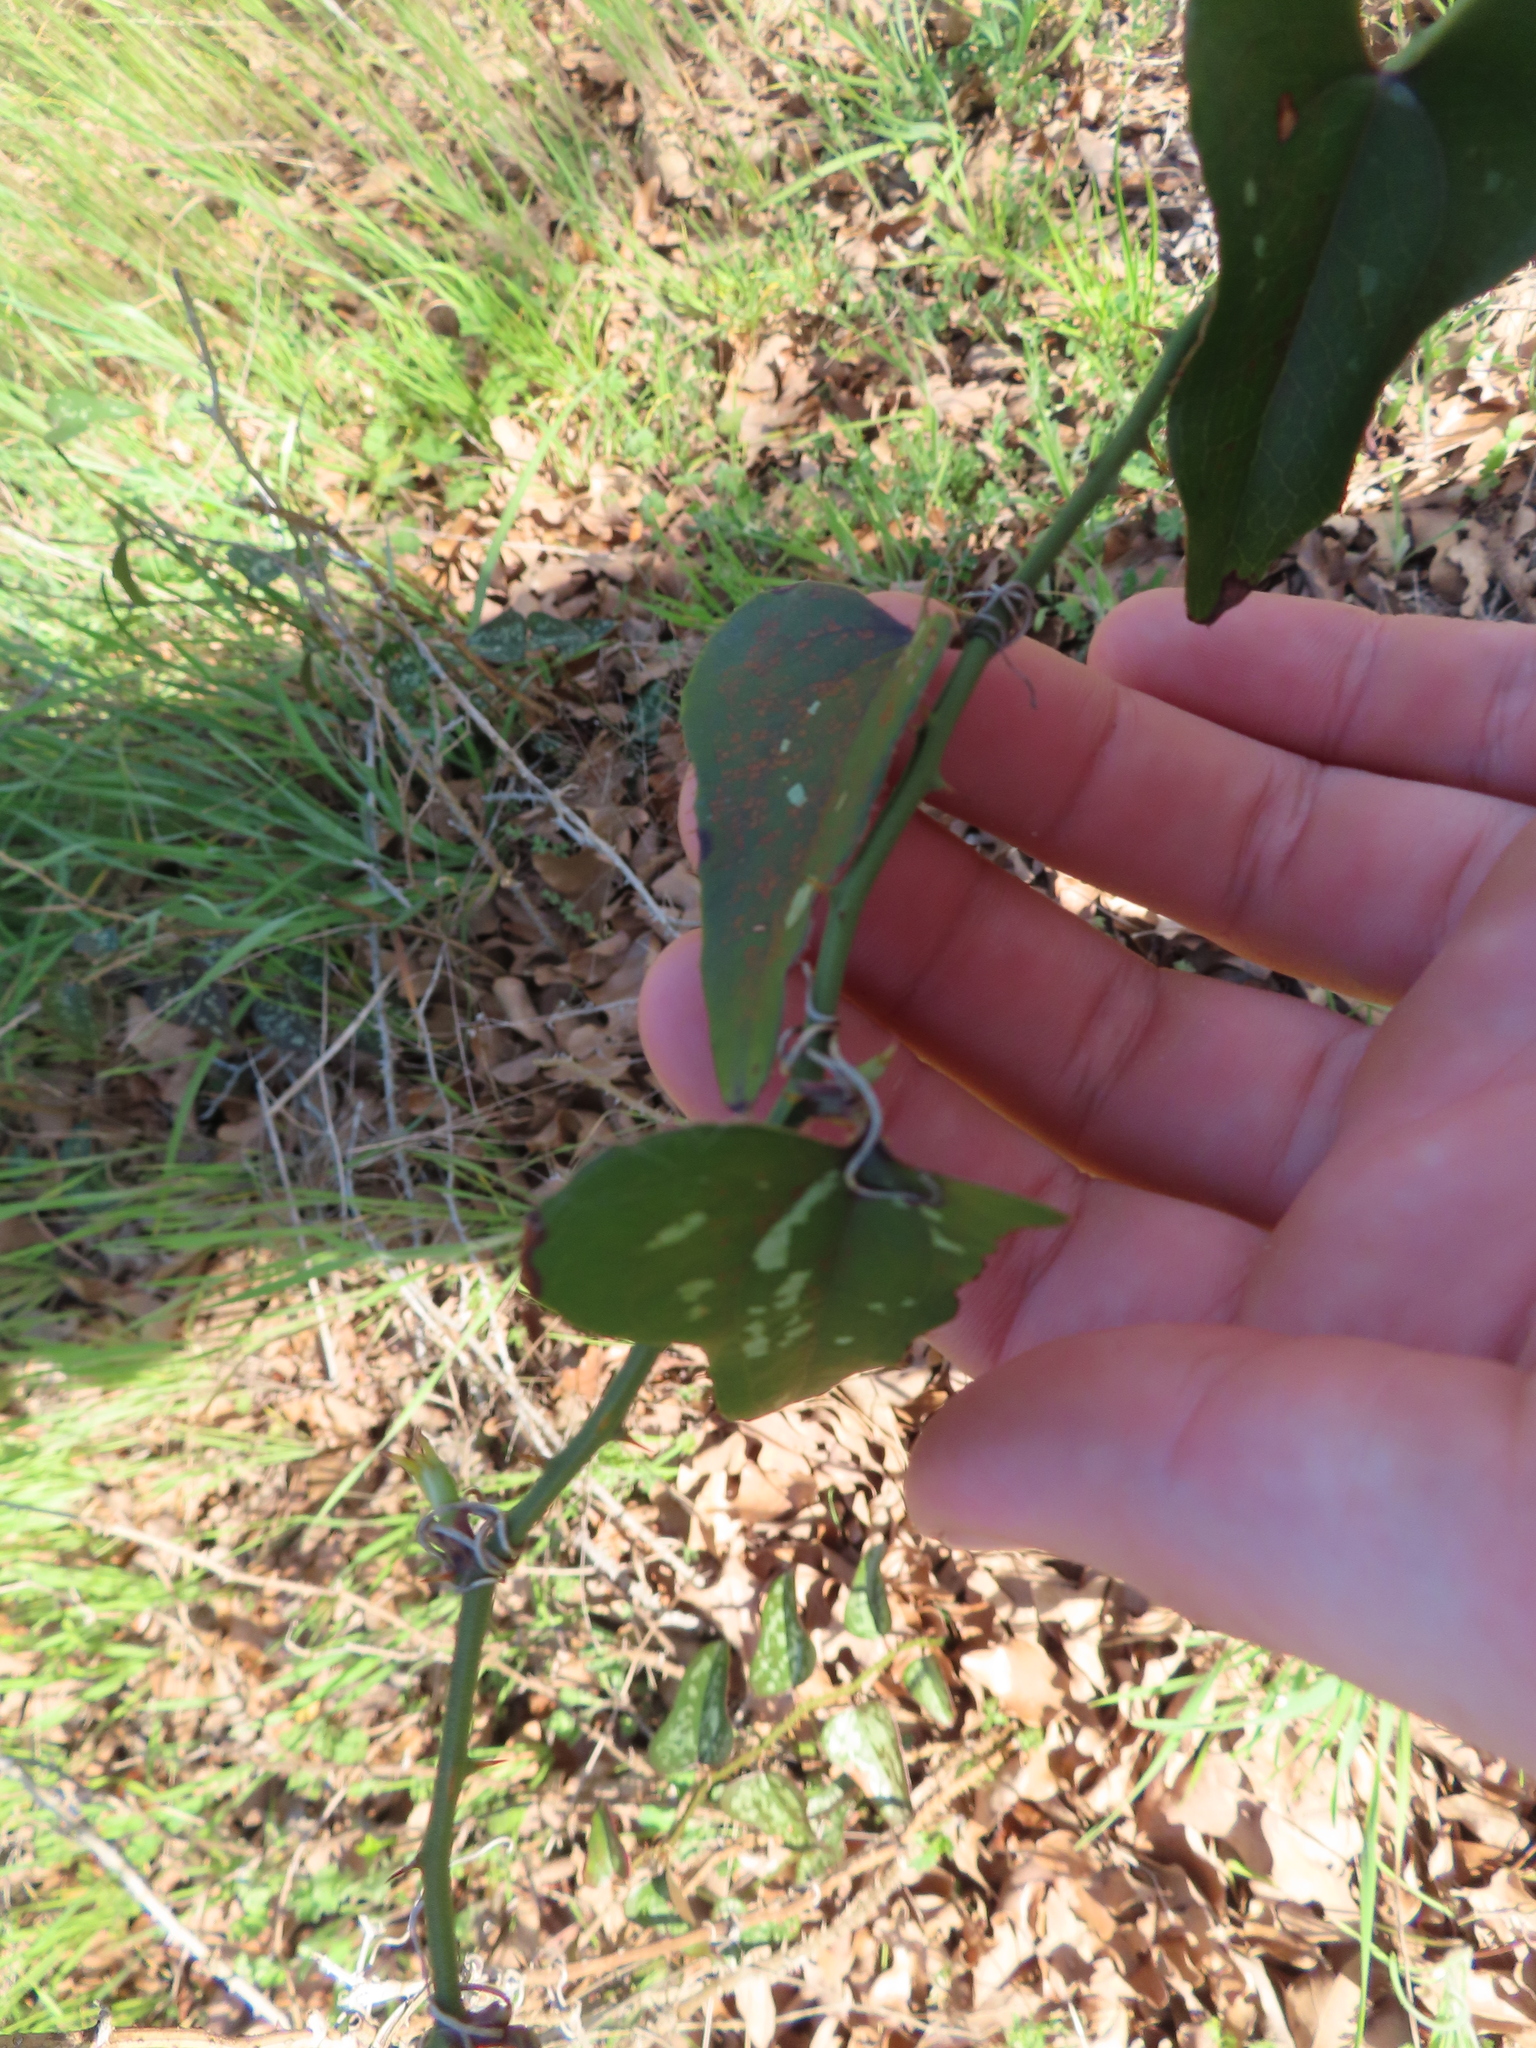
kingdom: Plantae
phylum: Tracheophyta
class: Liliopsida
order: Liliales
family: Smilacaceae
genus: Smilax
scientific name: Smilax bona-nox
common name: Catbrier
